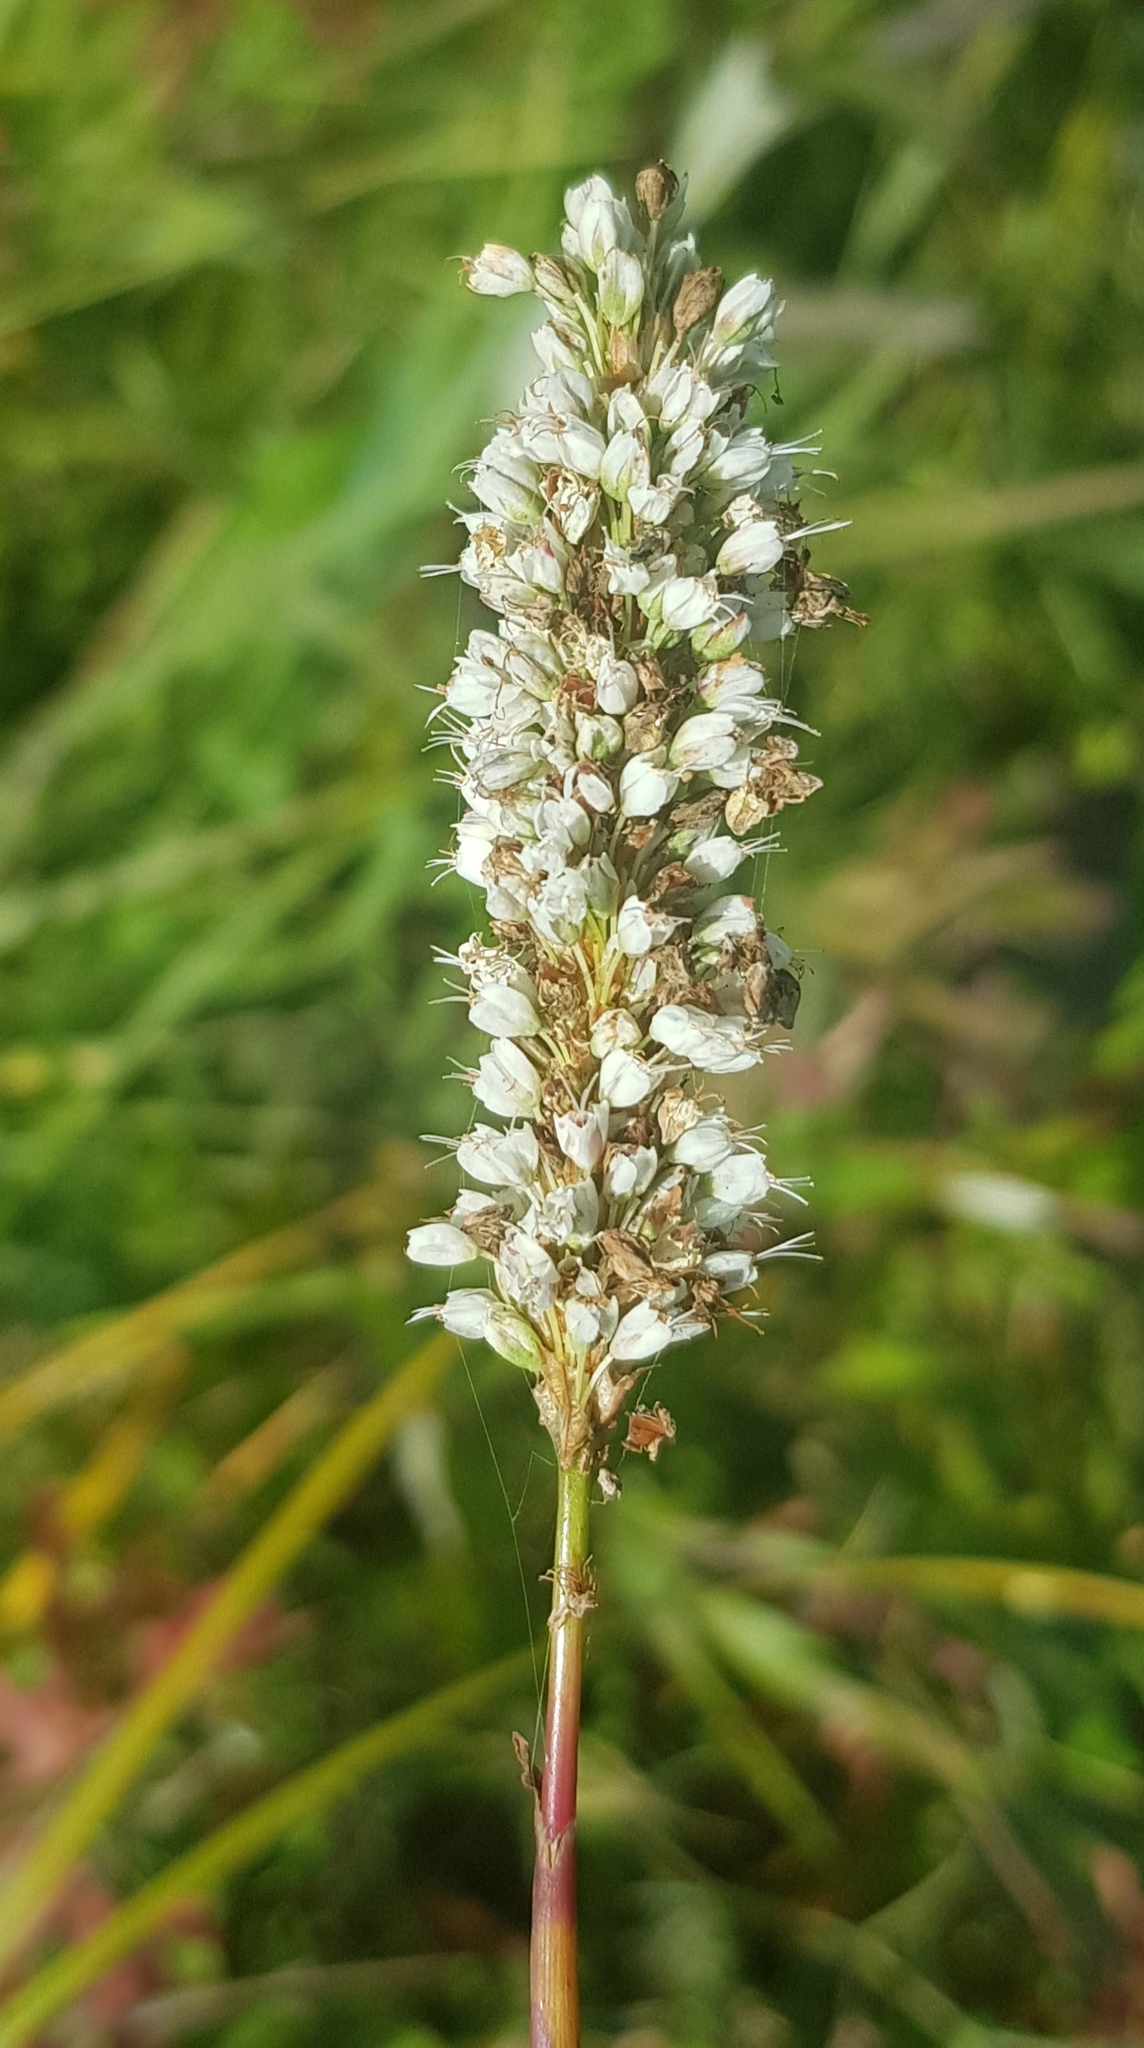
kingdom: Plantae
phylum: Tracheophyta
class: Magnoliopsida
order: Caryophyllales
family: Polygonaceae
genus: Bistorta
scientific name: Bistorta officinalis
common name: Common bistort
